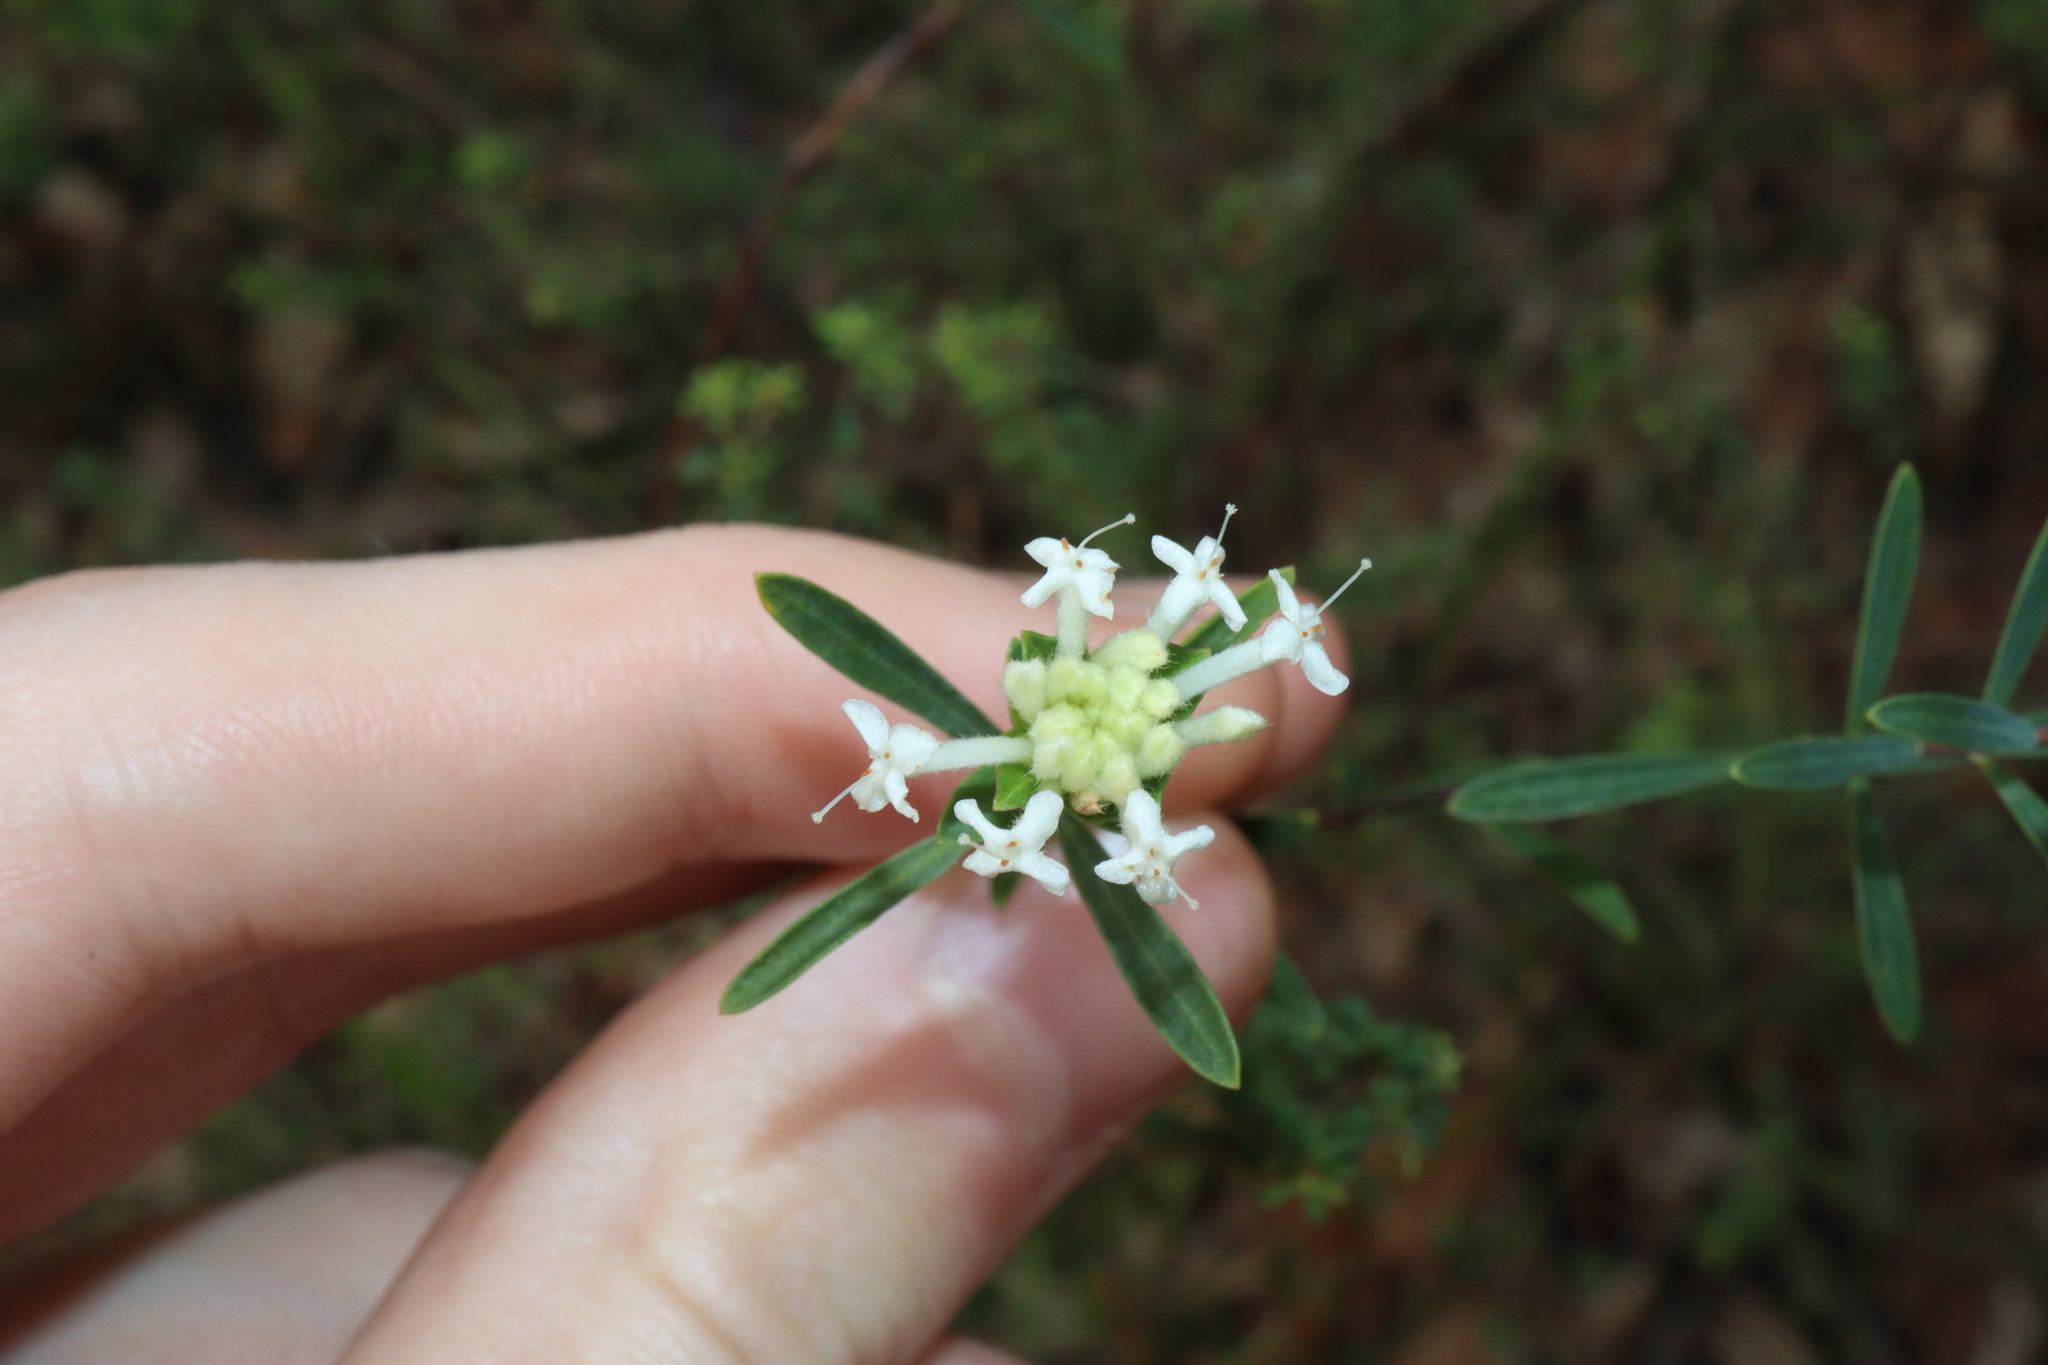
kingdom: Plantae
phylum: Tracheophyta
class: Magnoliopsida
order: Malvales
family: Thymelaeaceae
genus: Pimelea
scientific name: Pimelea linifolia
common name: Queen-of-the-bush
